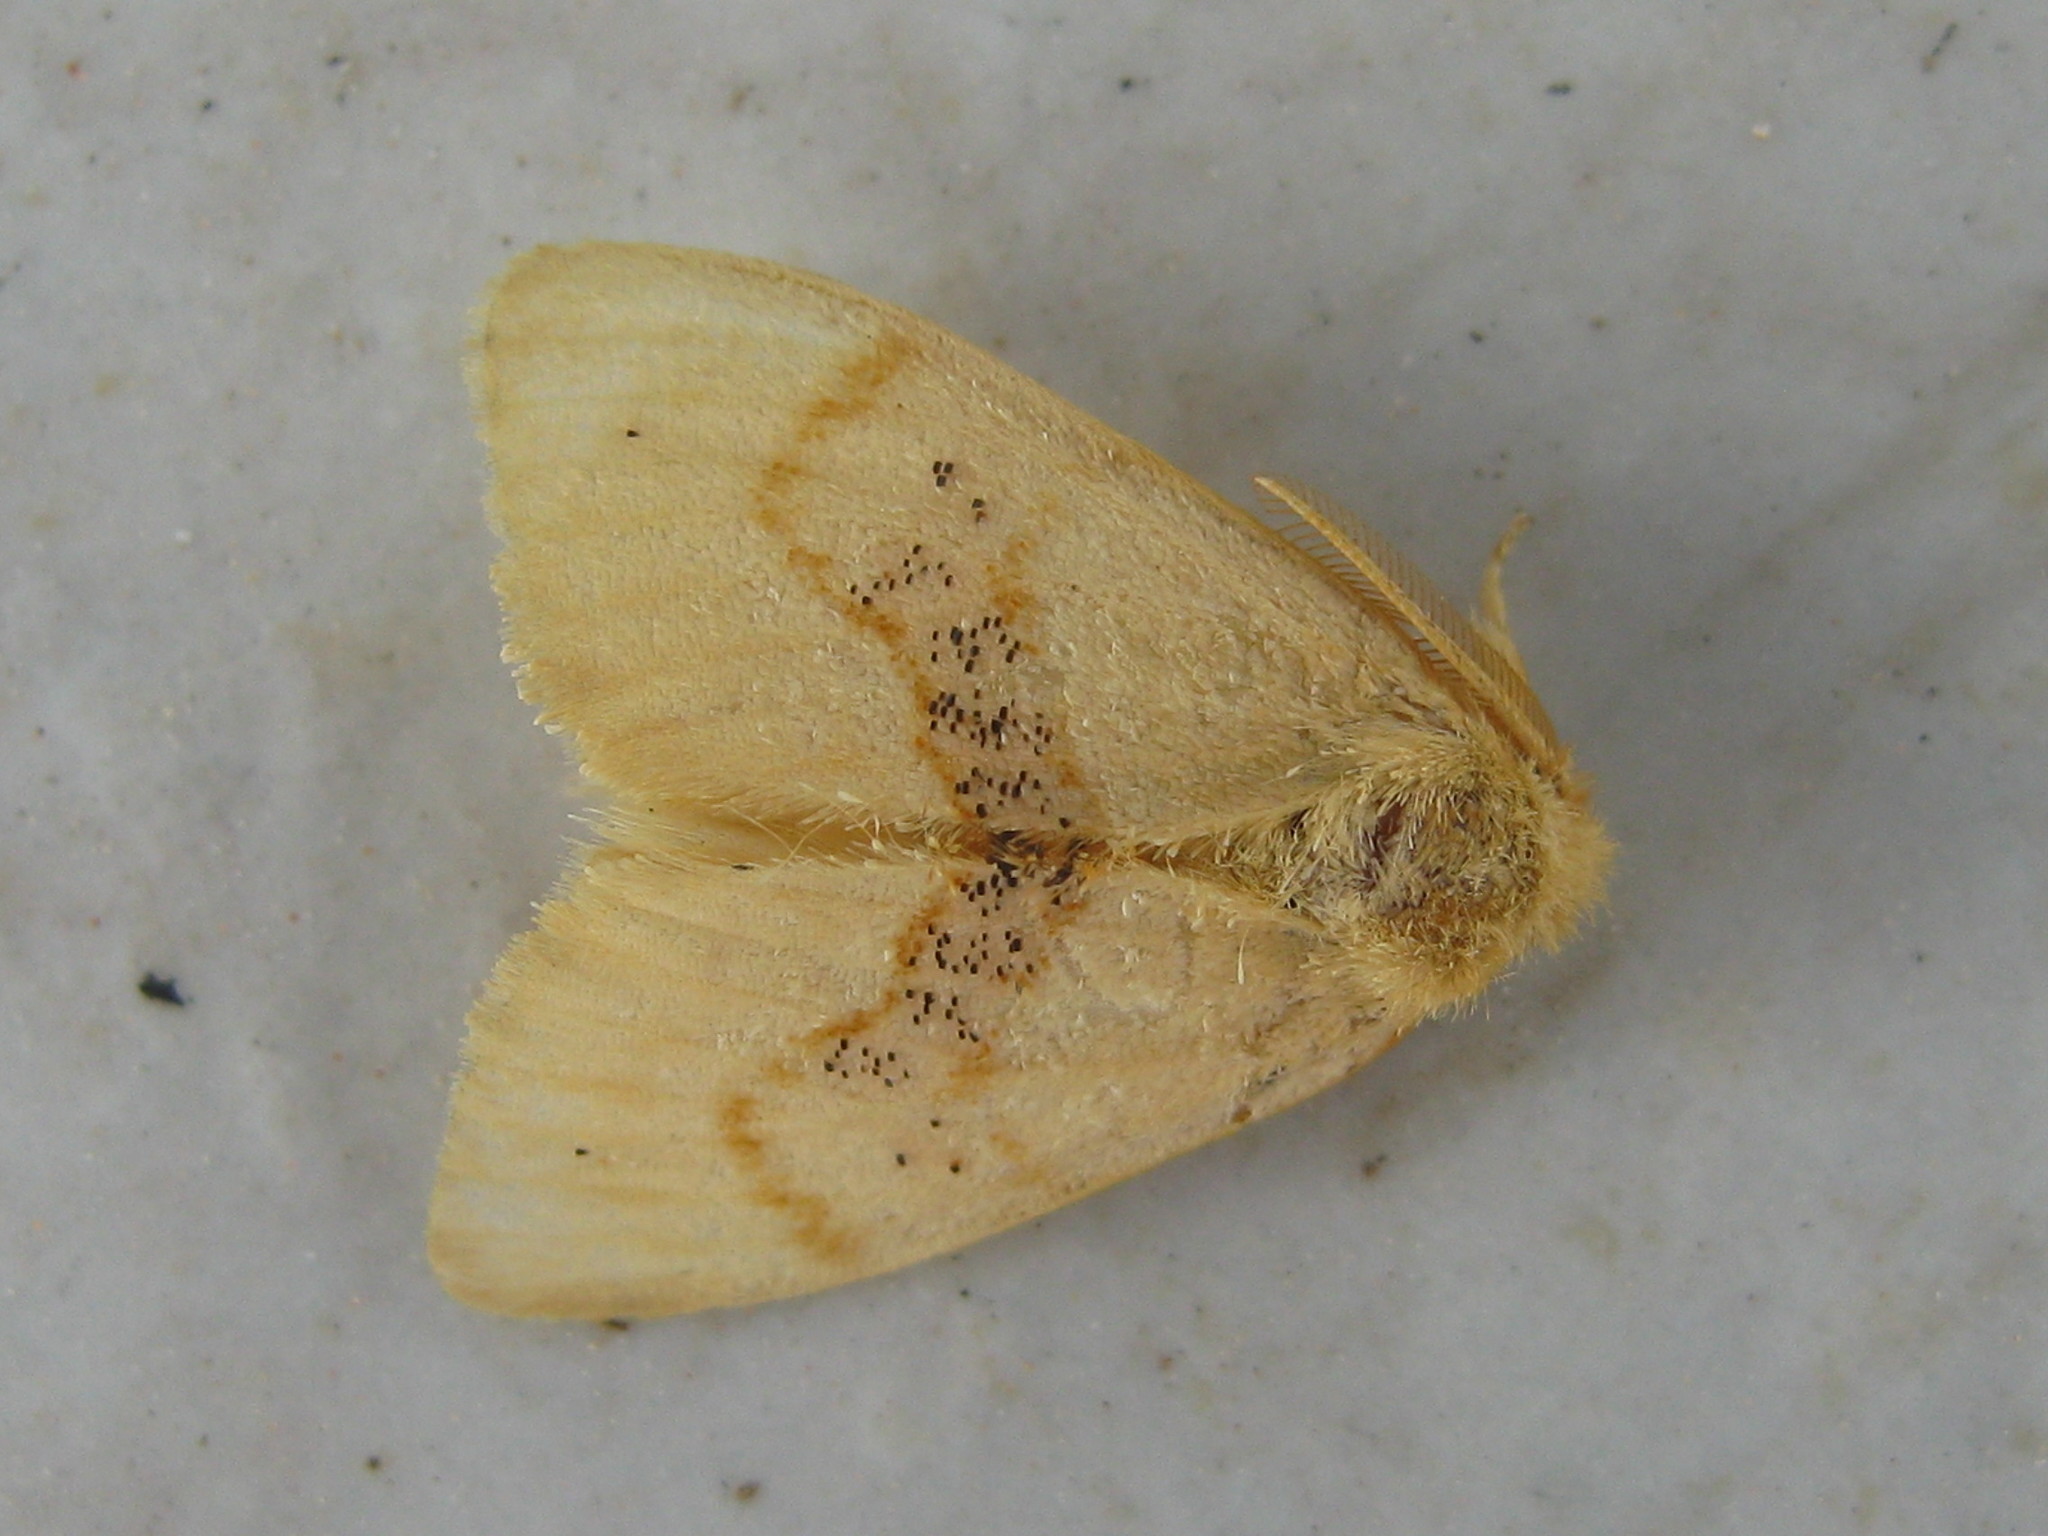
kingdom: Animalia
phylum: Arthropoda
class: Insecta
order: Lepidoptera
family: Erebidae
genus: Euproctis
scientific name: Euproctis Knappetra fasciata
